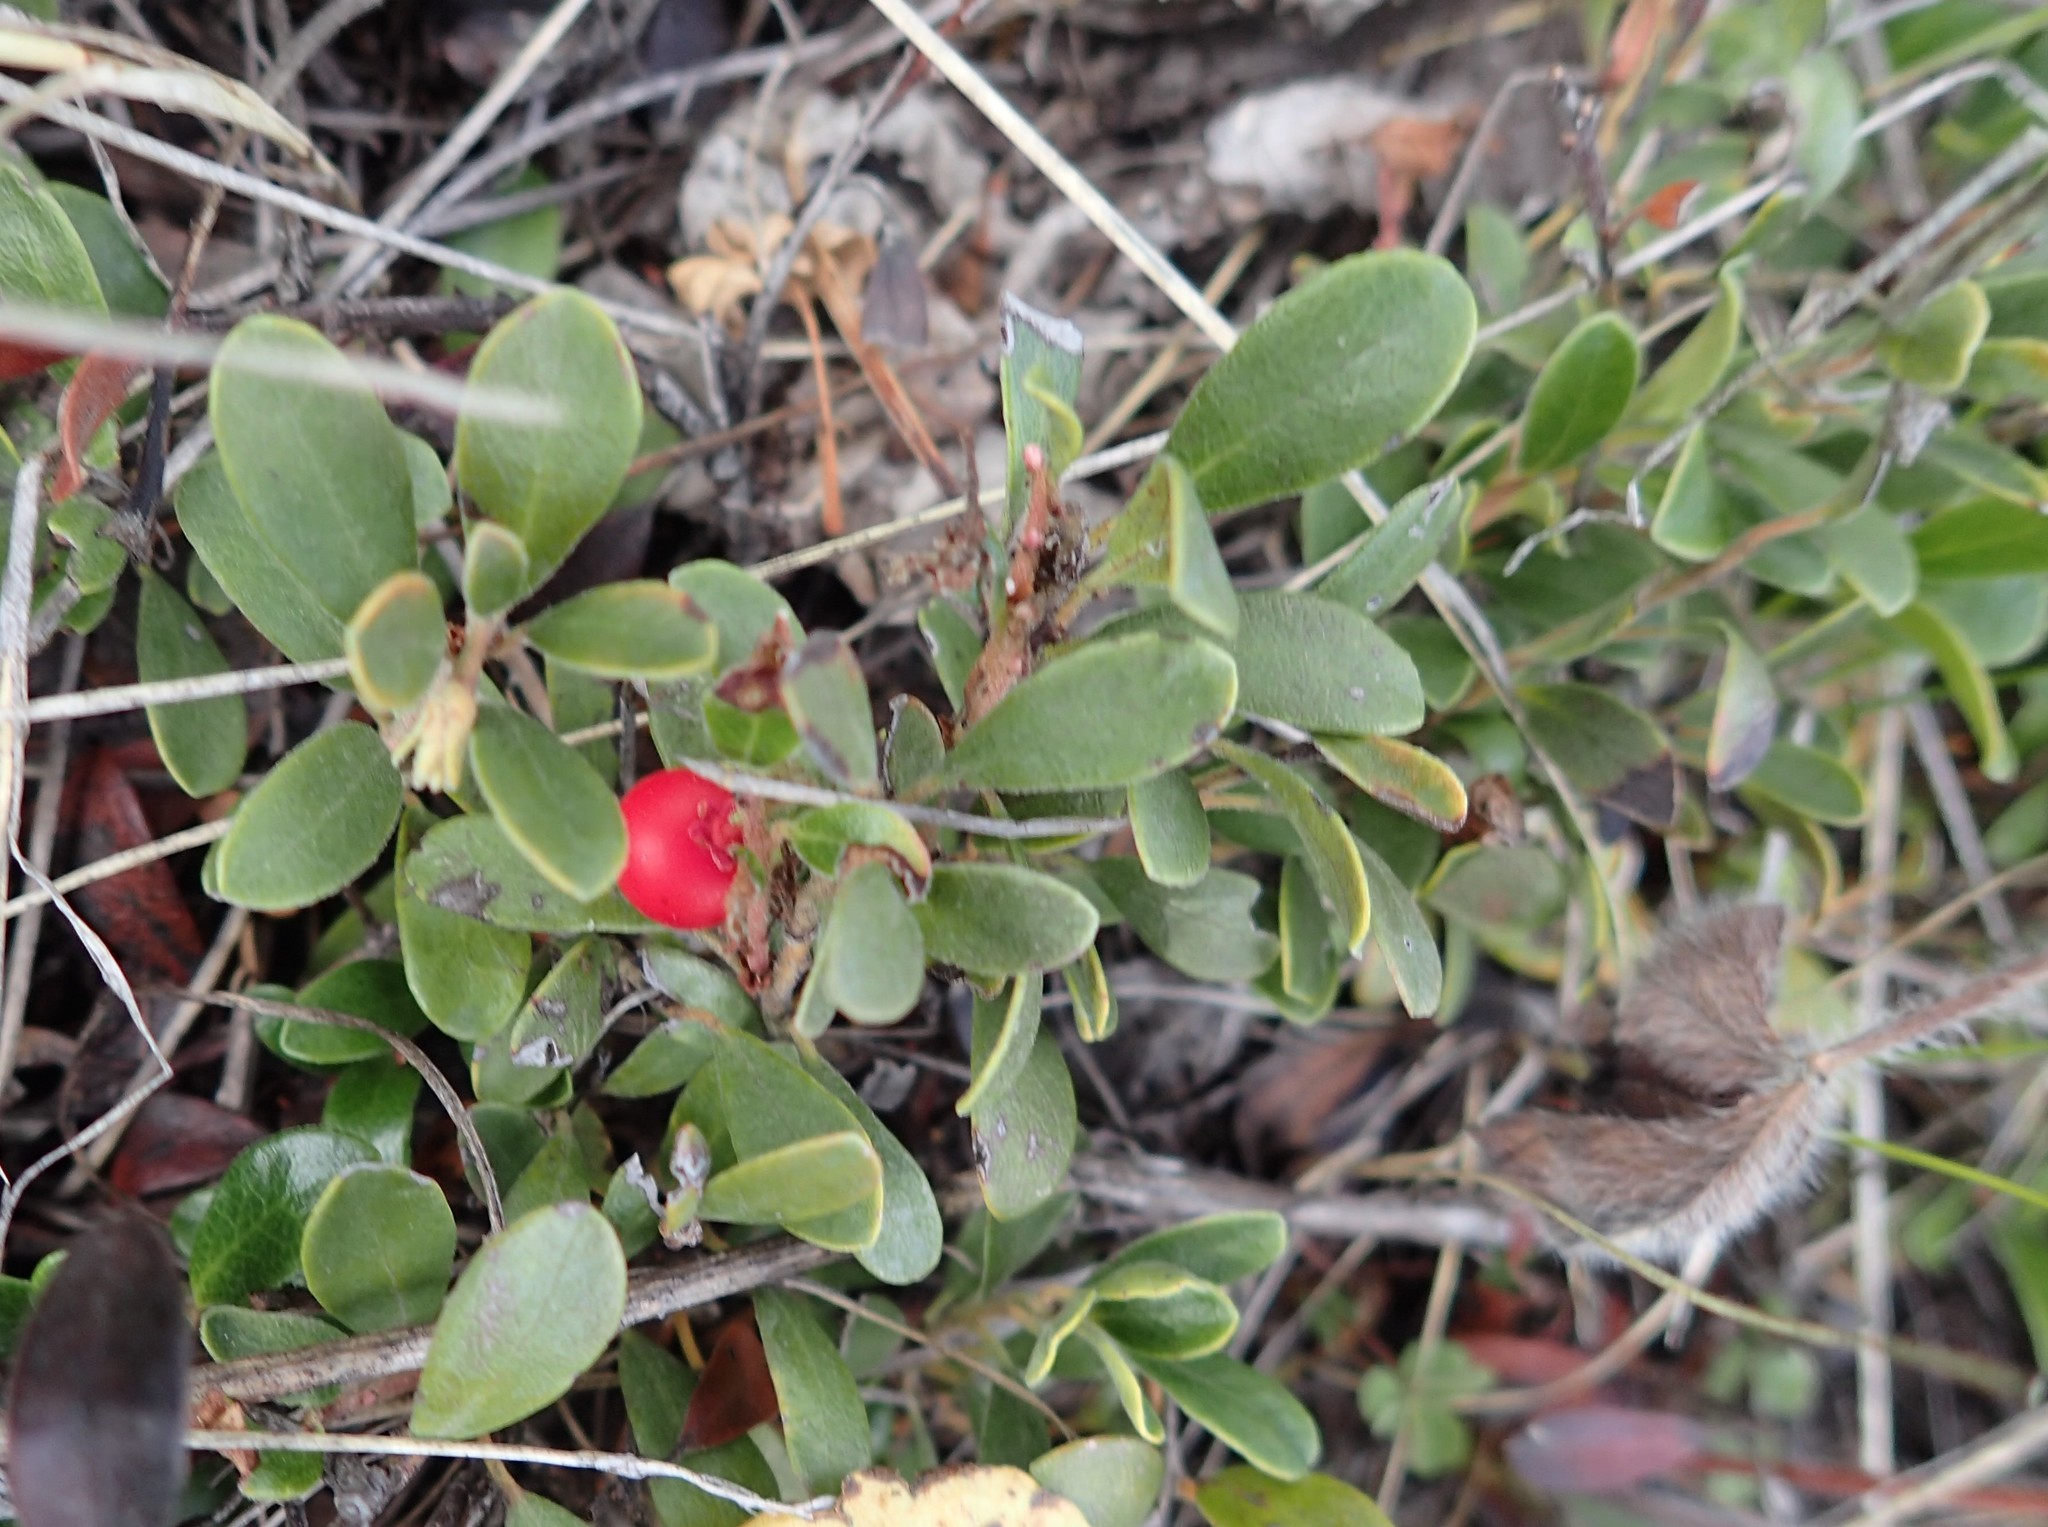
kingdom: Plantae
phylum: Tracheophyta
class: Magnoliopsida
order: Ericales
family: Ericaceae
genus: Arctostaphylos
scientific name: Arctostaphylos uva-ursi
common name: Bearberry
